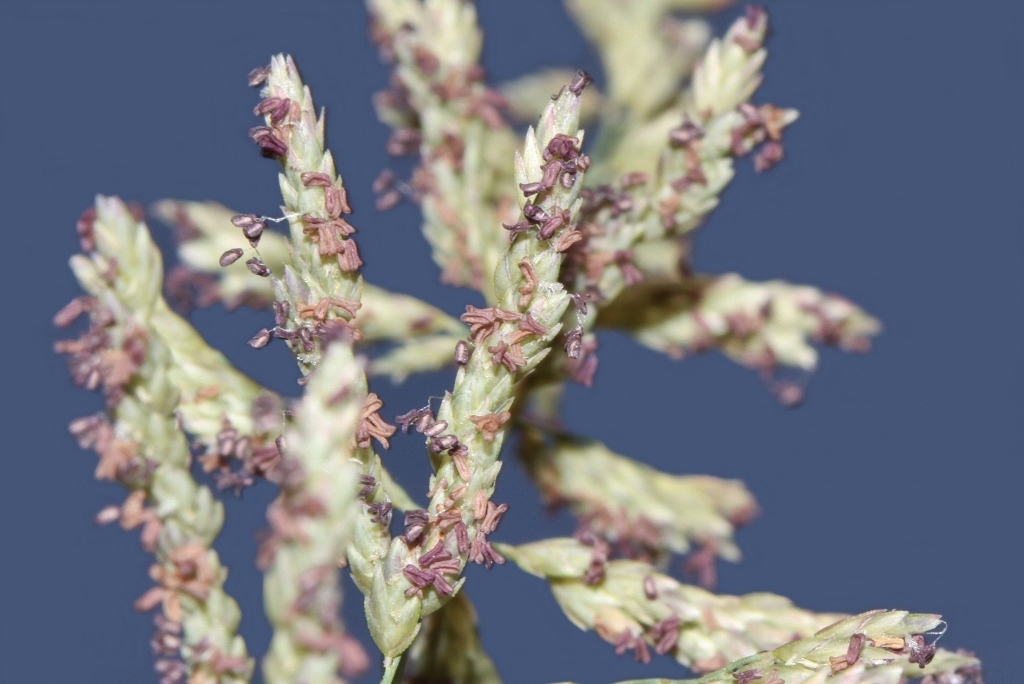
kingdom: Plantae
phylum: Tracheophyta
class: Liliopsida
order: Poales
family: Poaceae
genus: Eragrostis
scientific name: Eragrostis brainii
